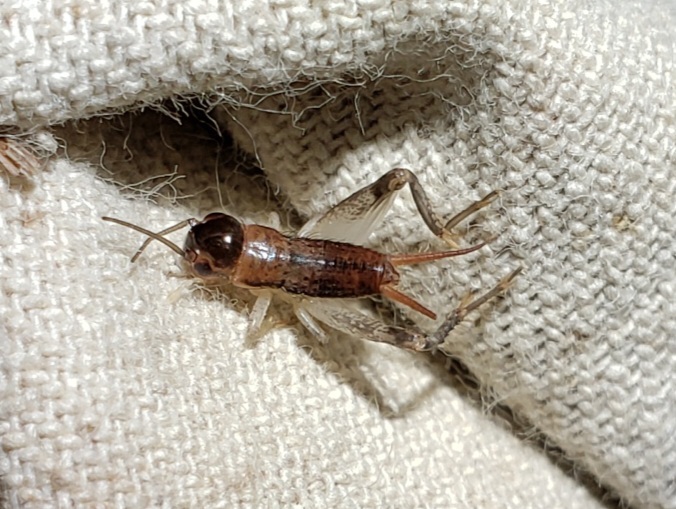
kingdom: Animalia
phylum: Arthropoda
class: Insecta
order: Orthoptera
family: Gryllidae
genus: Miogryllus
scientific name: Miogryllus verticalis
